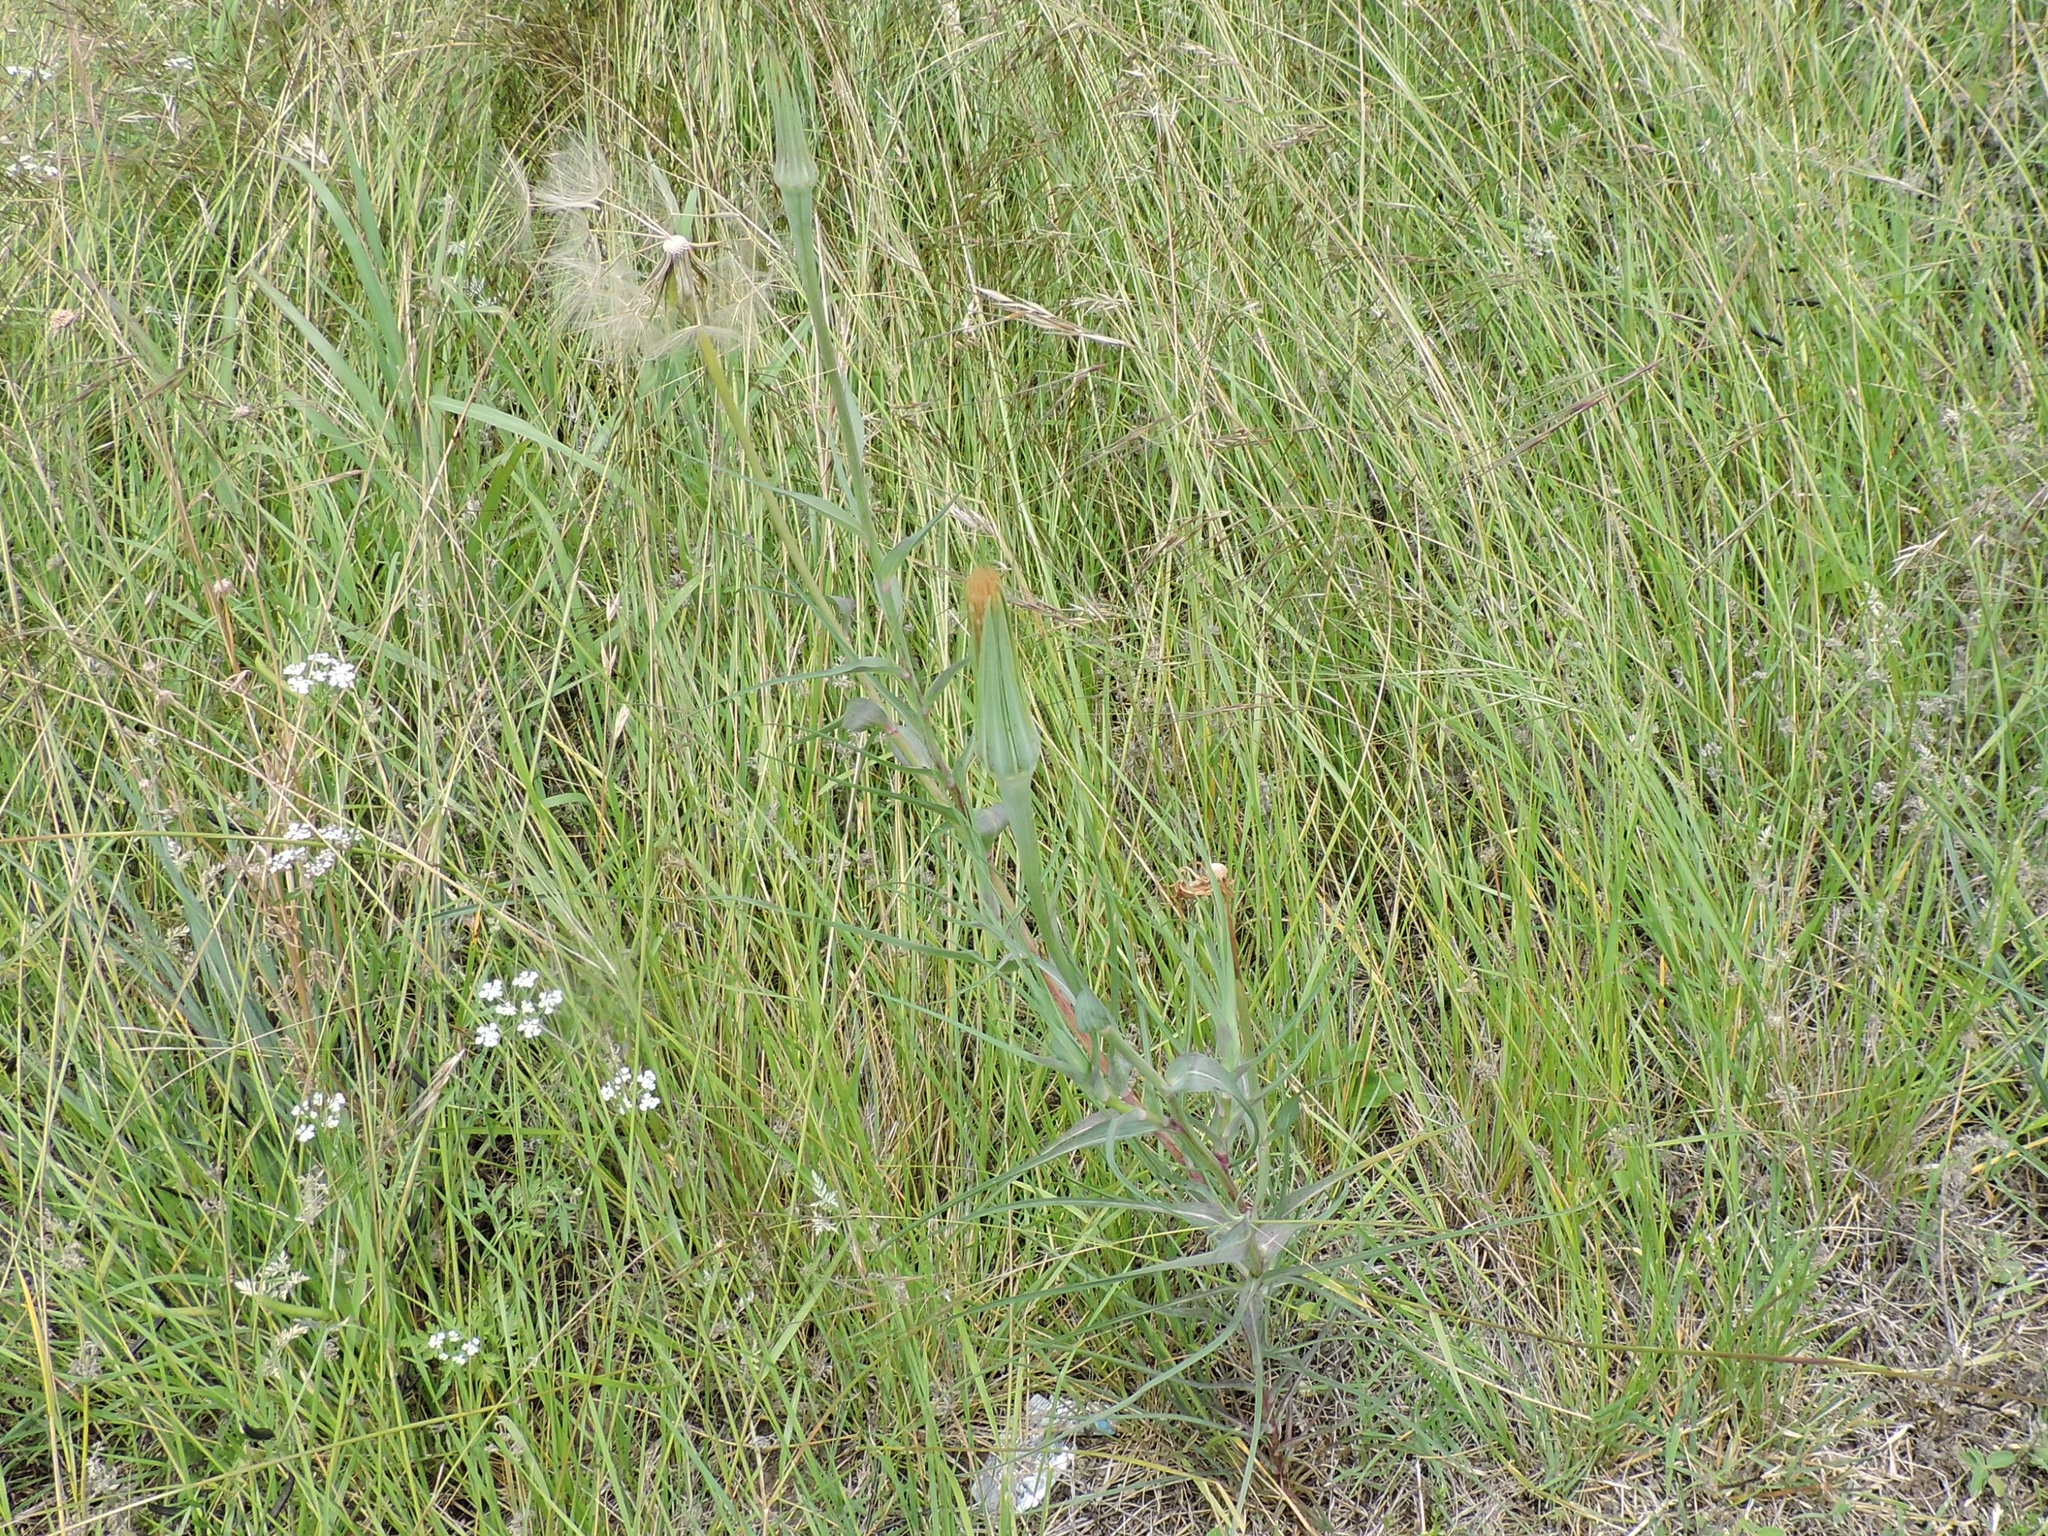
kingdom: Plantae
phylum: Tracheophyta
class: Magnoliopsida
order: Asterales
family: Asteraceae
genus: Tragopogon
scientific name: Tragopogon dubius
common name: Yellow salsify
